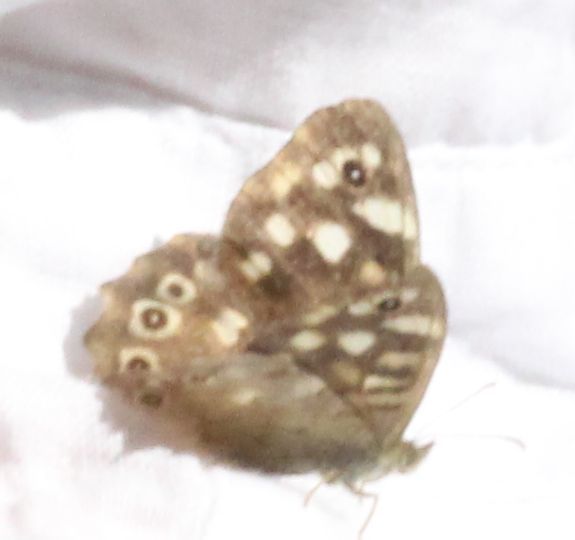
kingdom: Animalia
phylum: Arthropoda
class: Insecta
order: Lepidoptera
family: Nymphalidae
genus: Pararge
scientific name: Pararge aegeria
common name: Speckled wood
